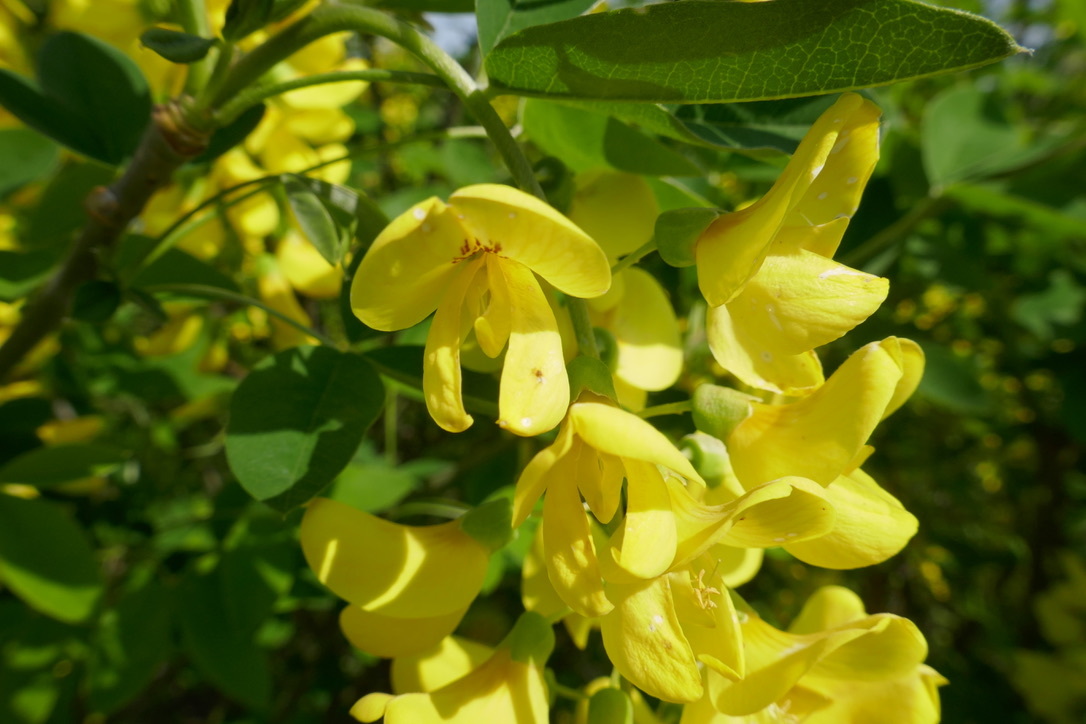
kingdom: Plantae
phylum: Tracheophyta
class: Magnoliopsida
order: Fabales
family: Fabaceae
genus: Laburnum
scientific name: Laburnum anagyroides
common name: Laburnum
